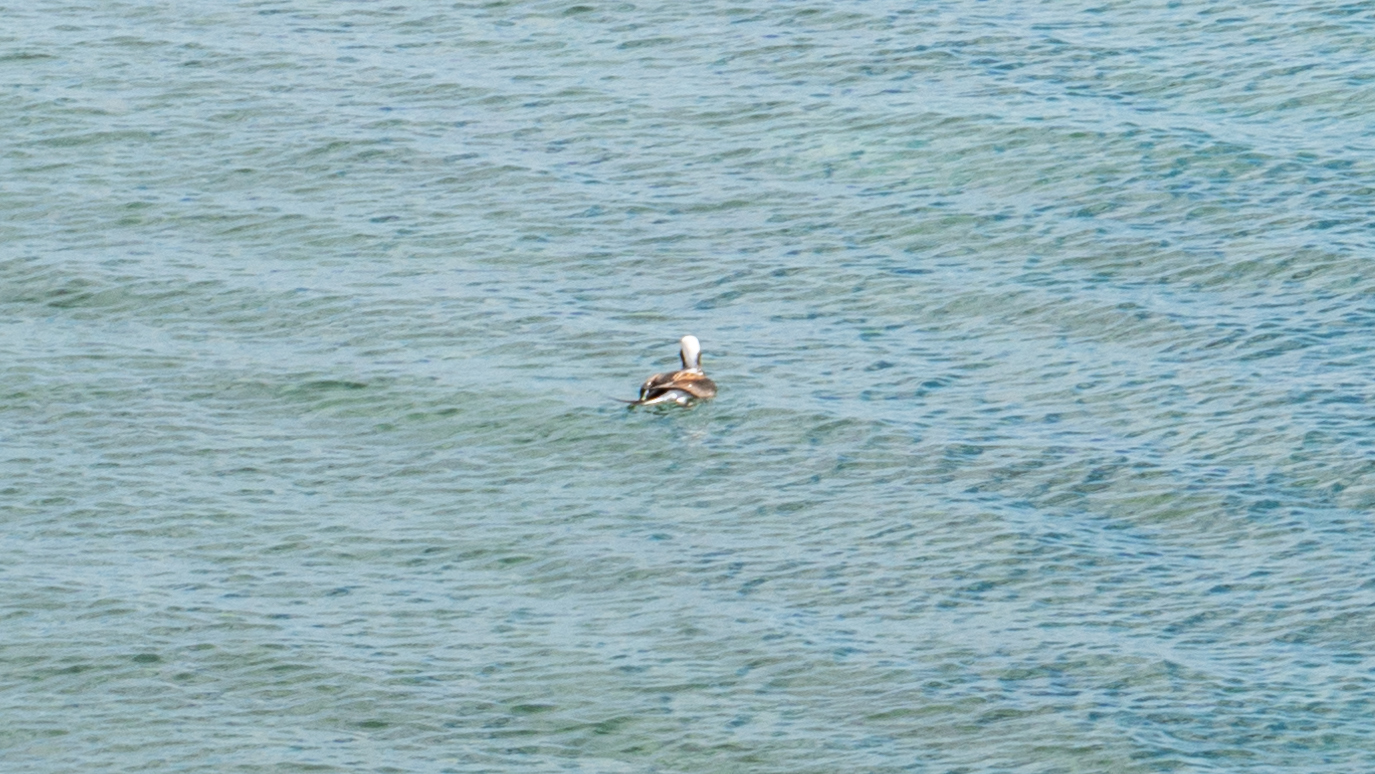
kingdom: Animalia
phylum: Chordata
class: Aves
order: Anseriformes
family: Anatidae
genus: Clangula
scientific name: Clangula hyemalis
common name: Long-tailed duck
